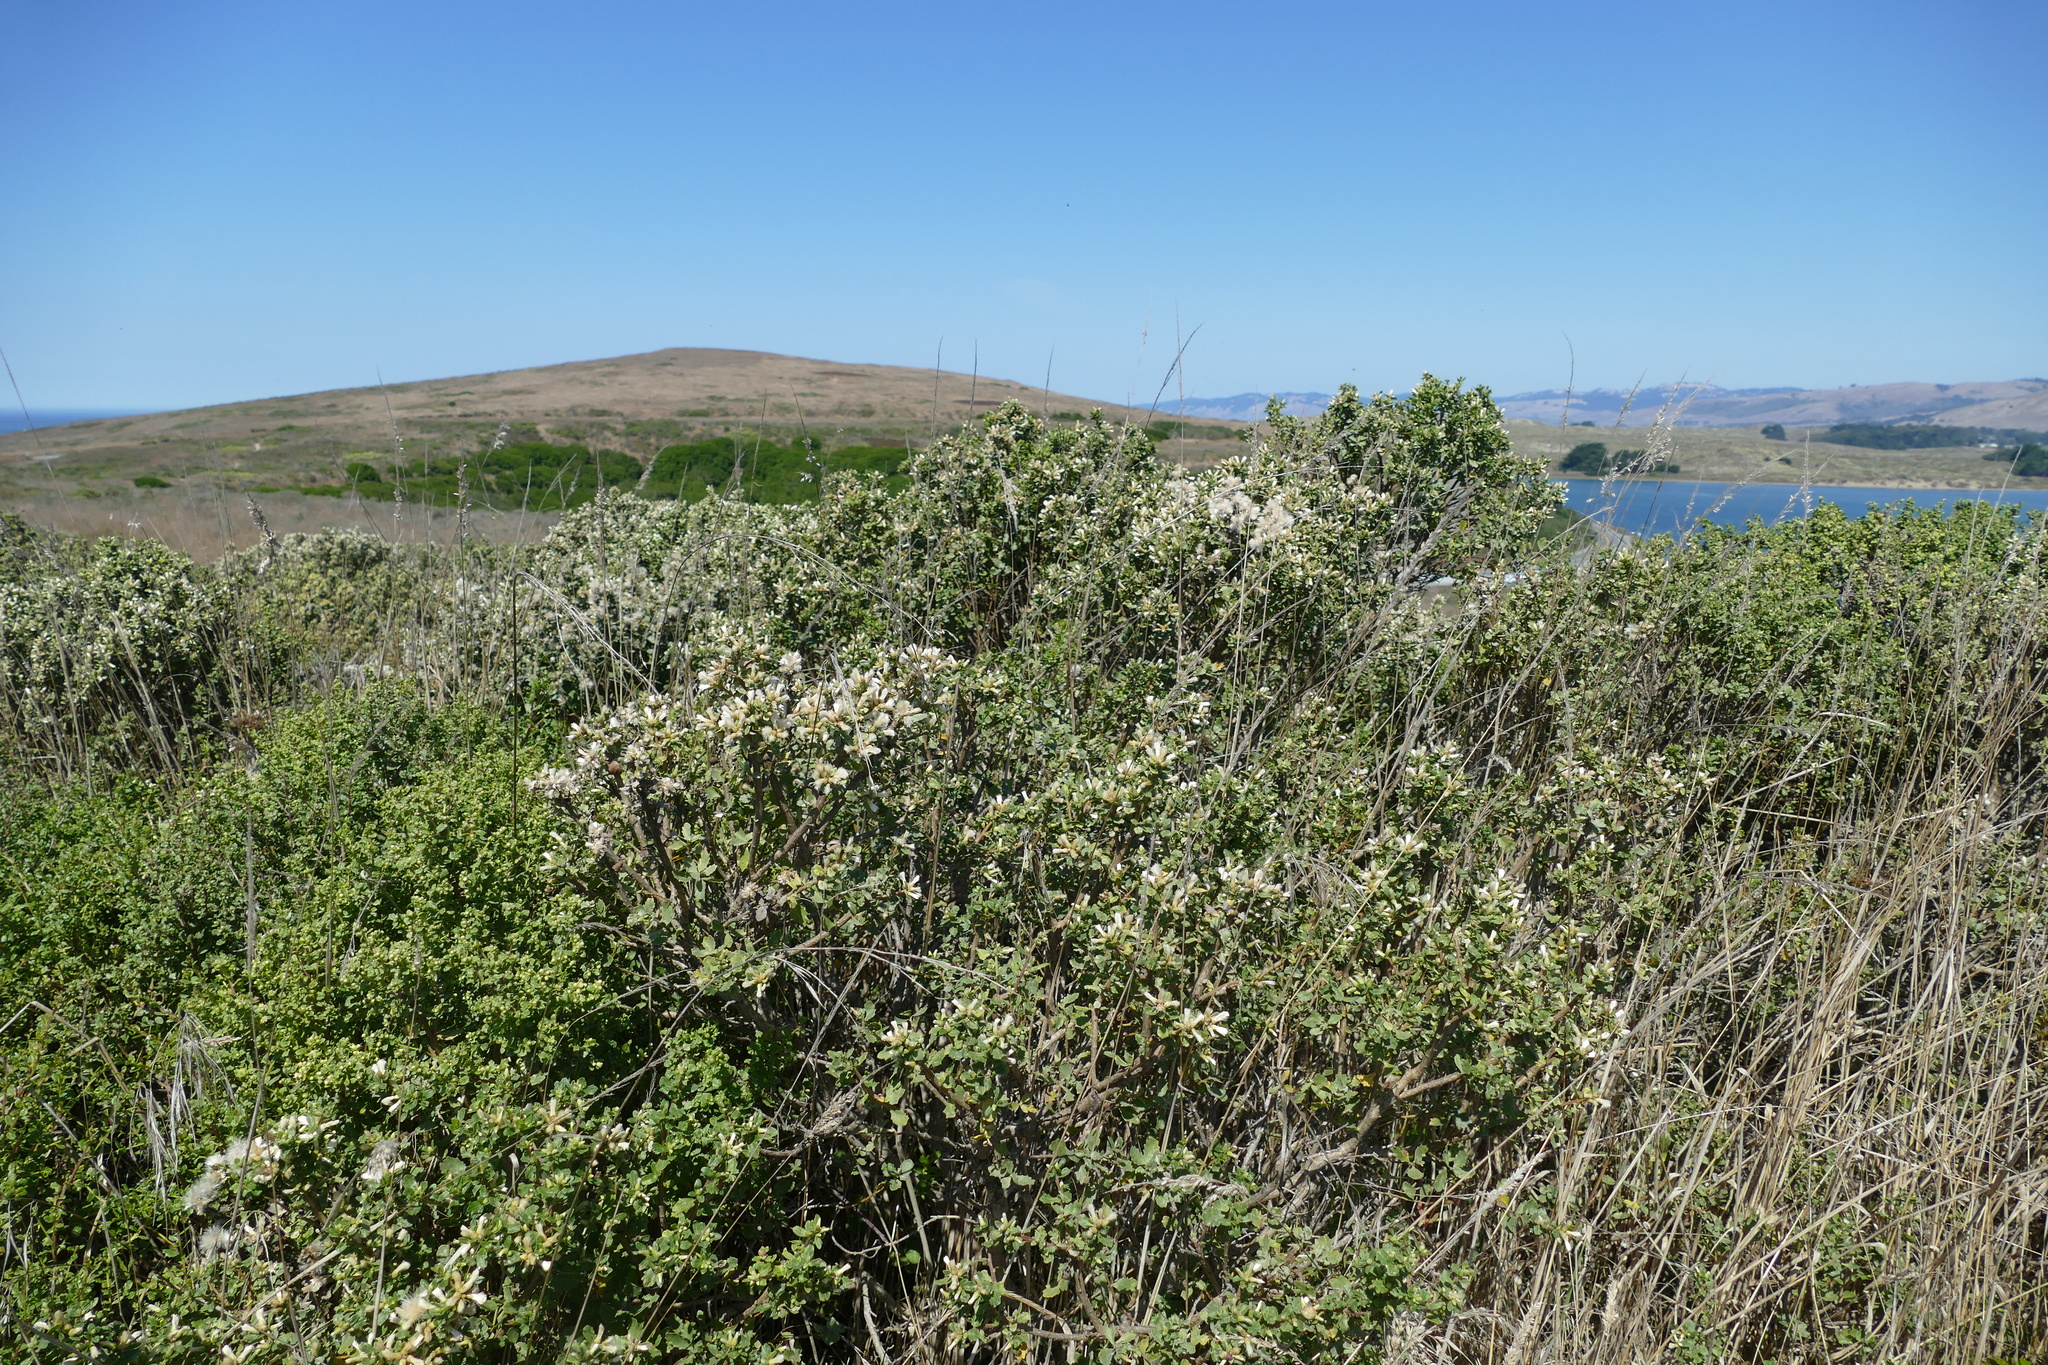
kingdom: Plantae
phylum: Tracheophyta
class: Magnoliopsida
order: Asterales
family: Asteraceae
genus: Baccharis
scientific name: Baccharis pilularis
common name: Coyotebrush
